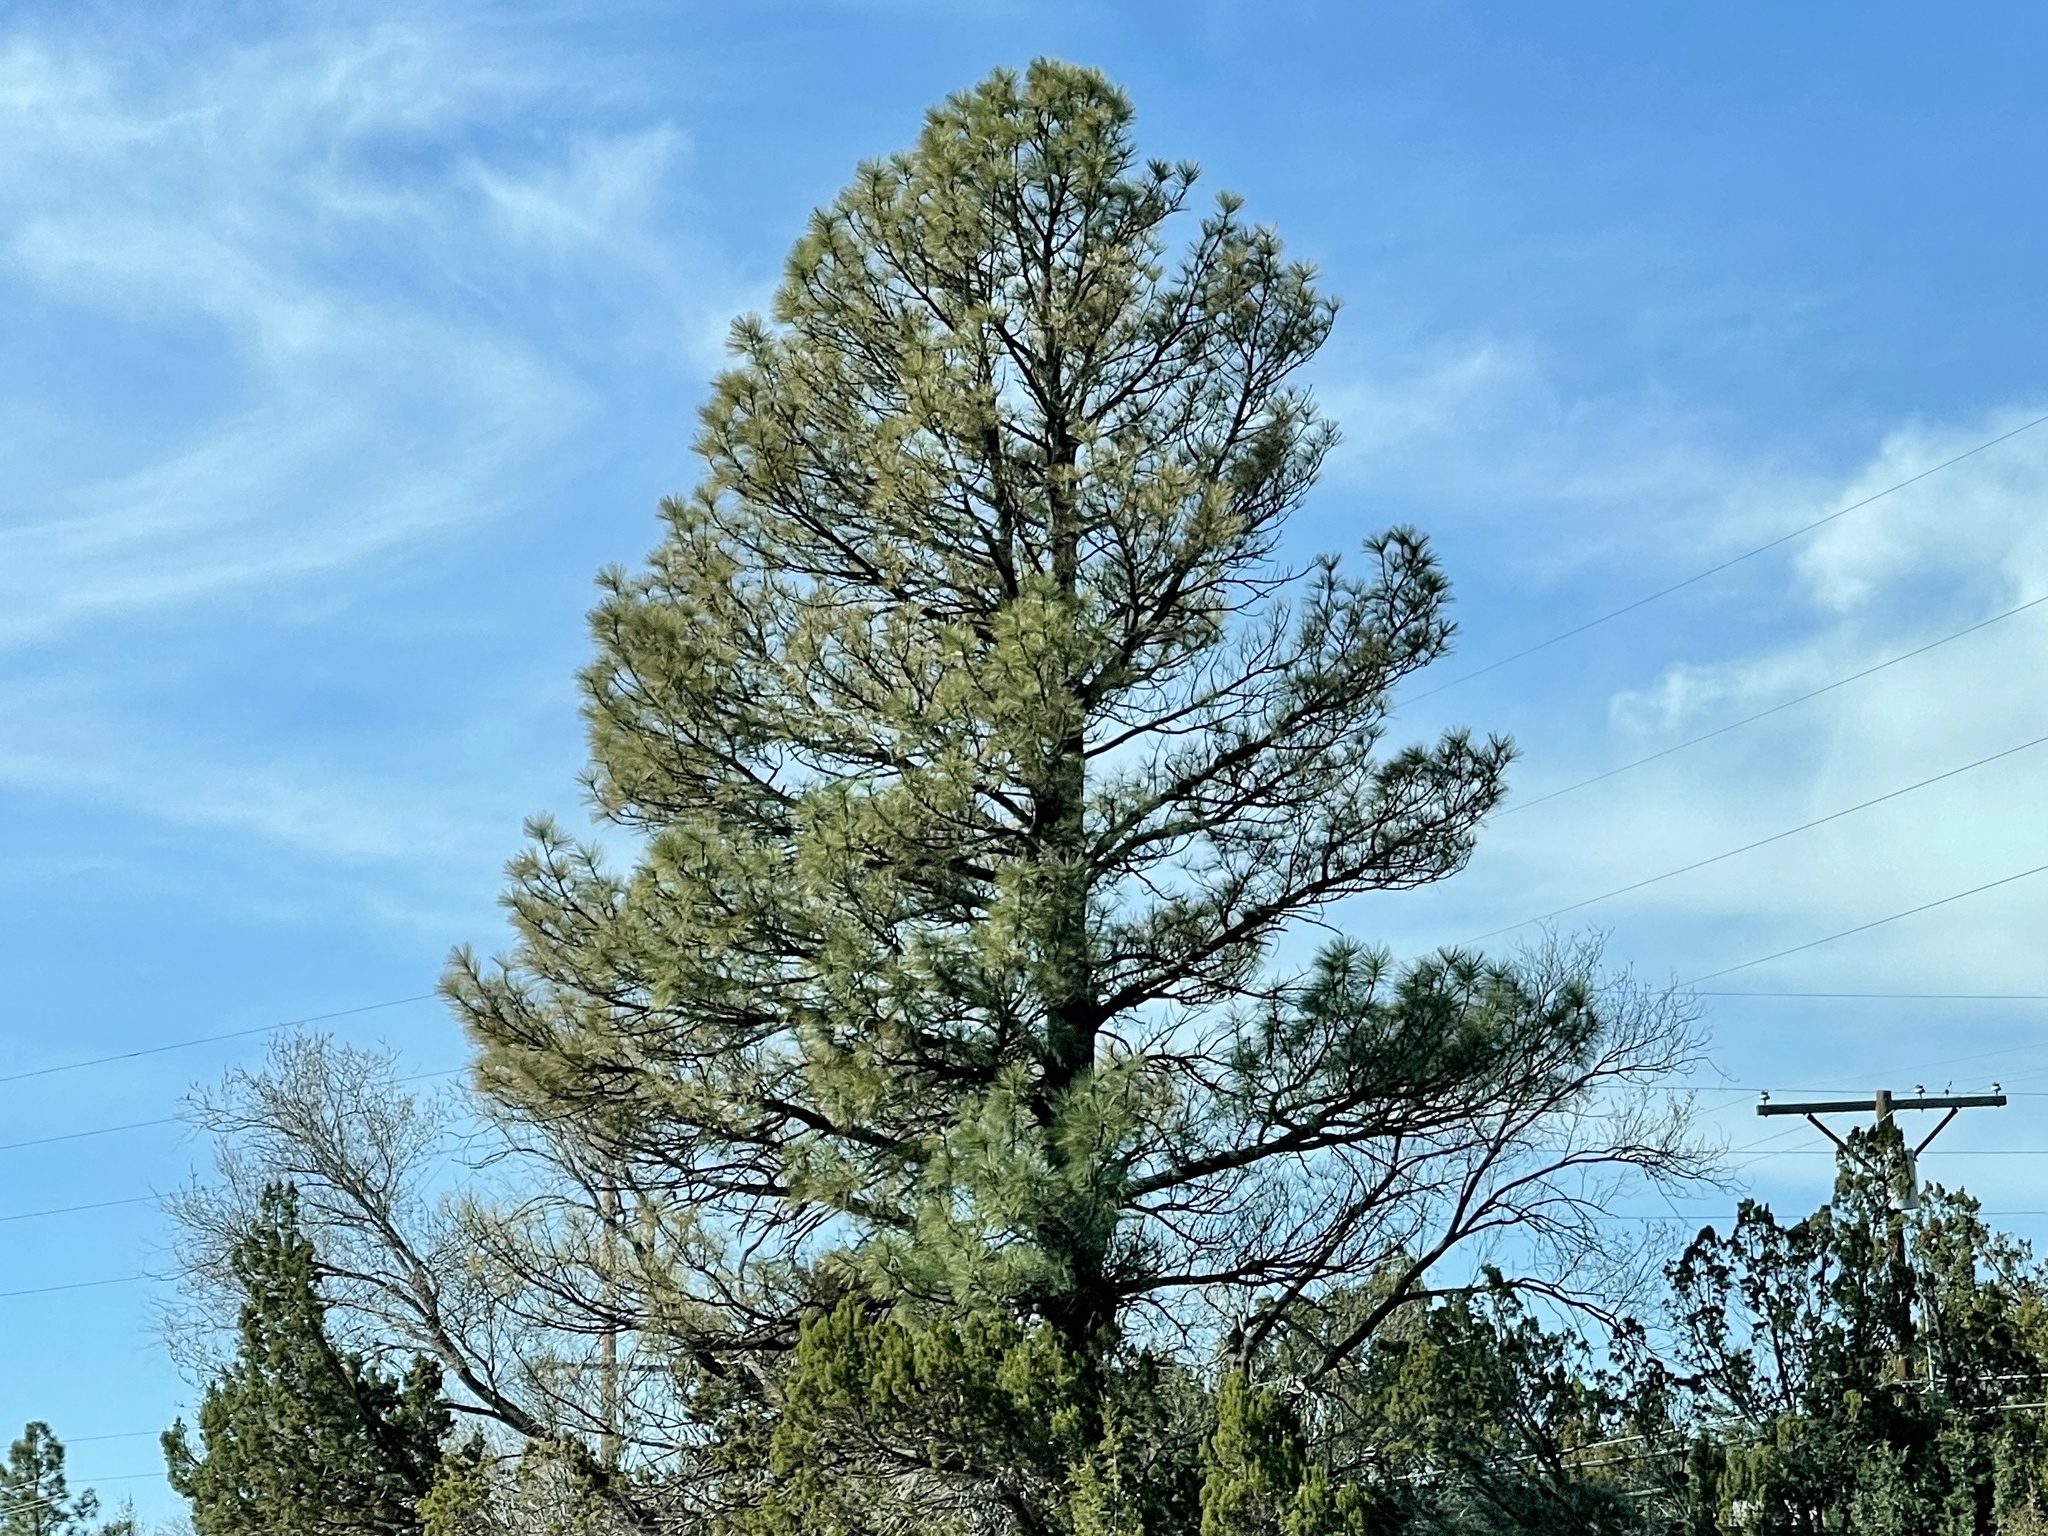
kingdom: Plantae
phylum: Tracheophyta
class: Pinopsida
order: Pinales
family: Pinaceae
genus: Pinus
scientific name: Pinus ponderosa
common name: Western yellow-pine
